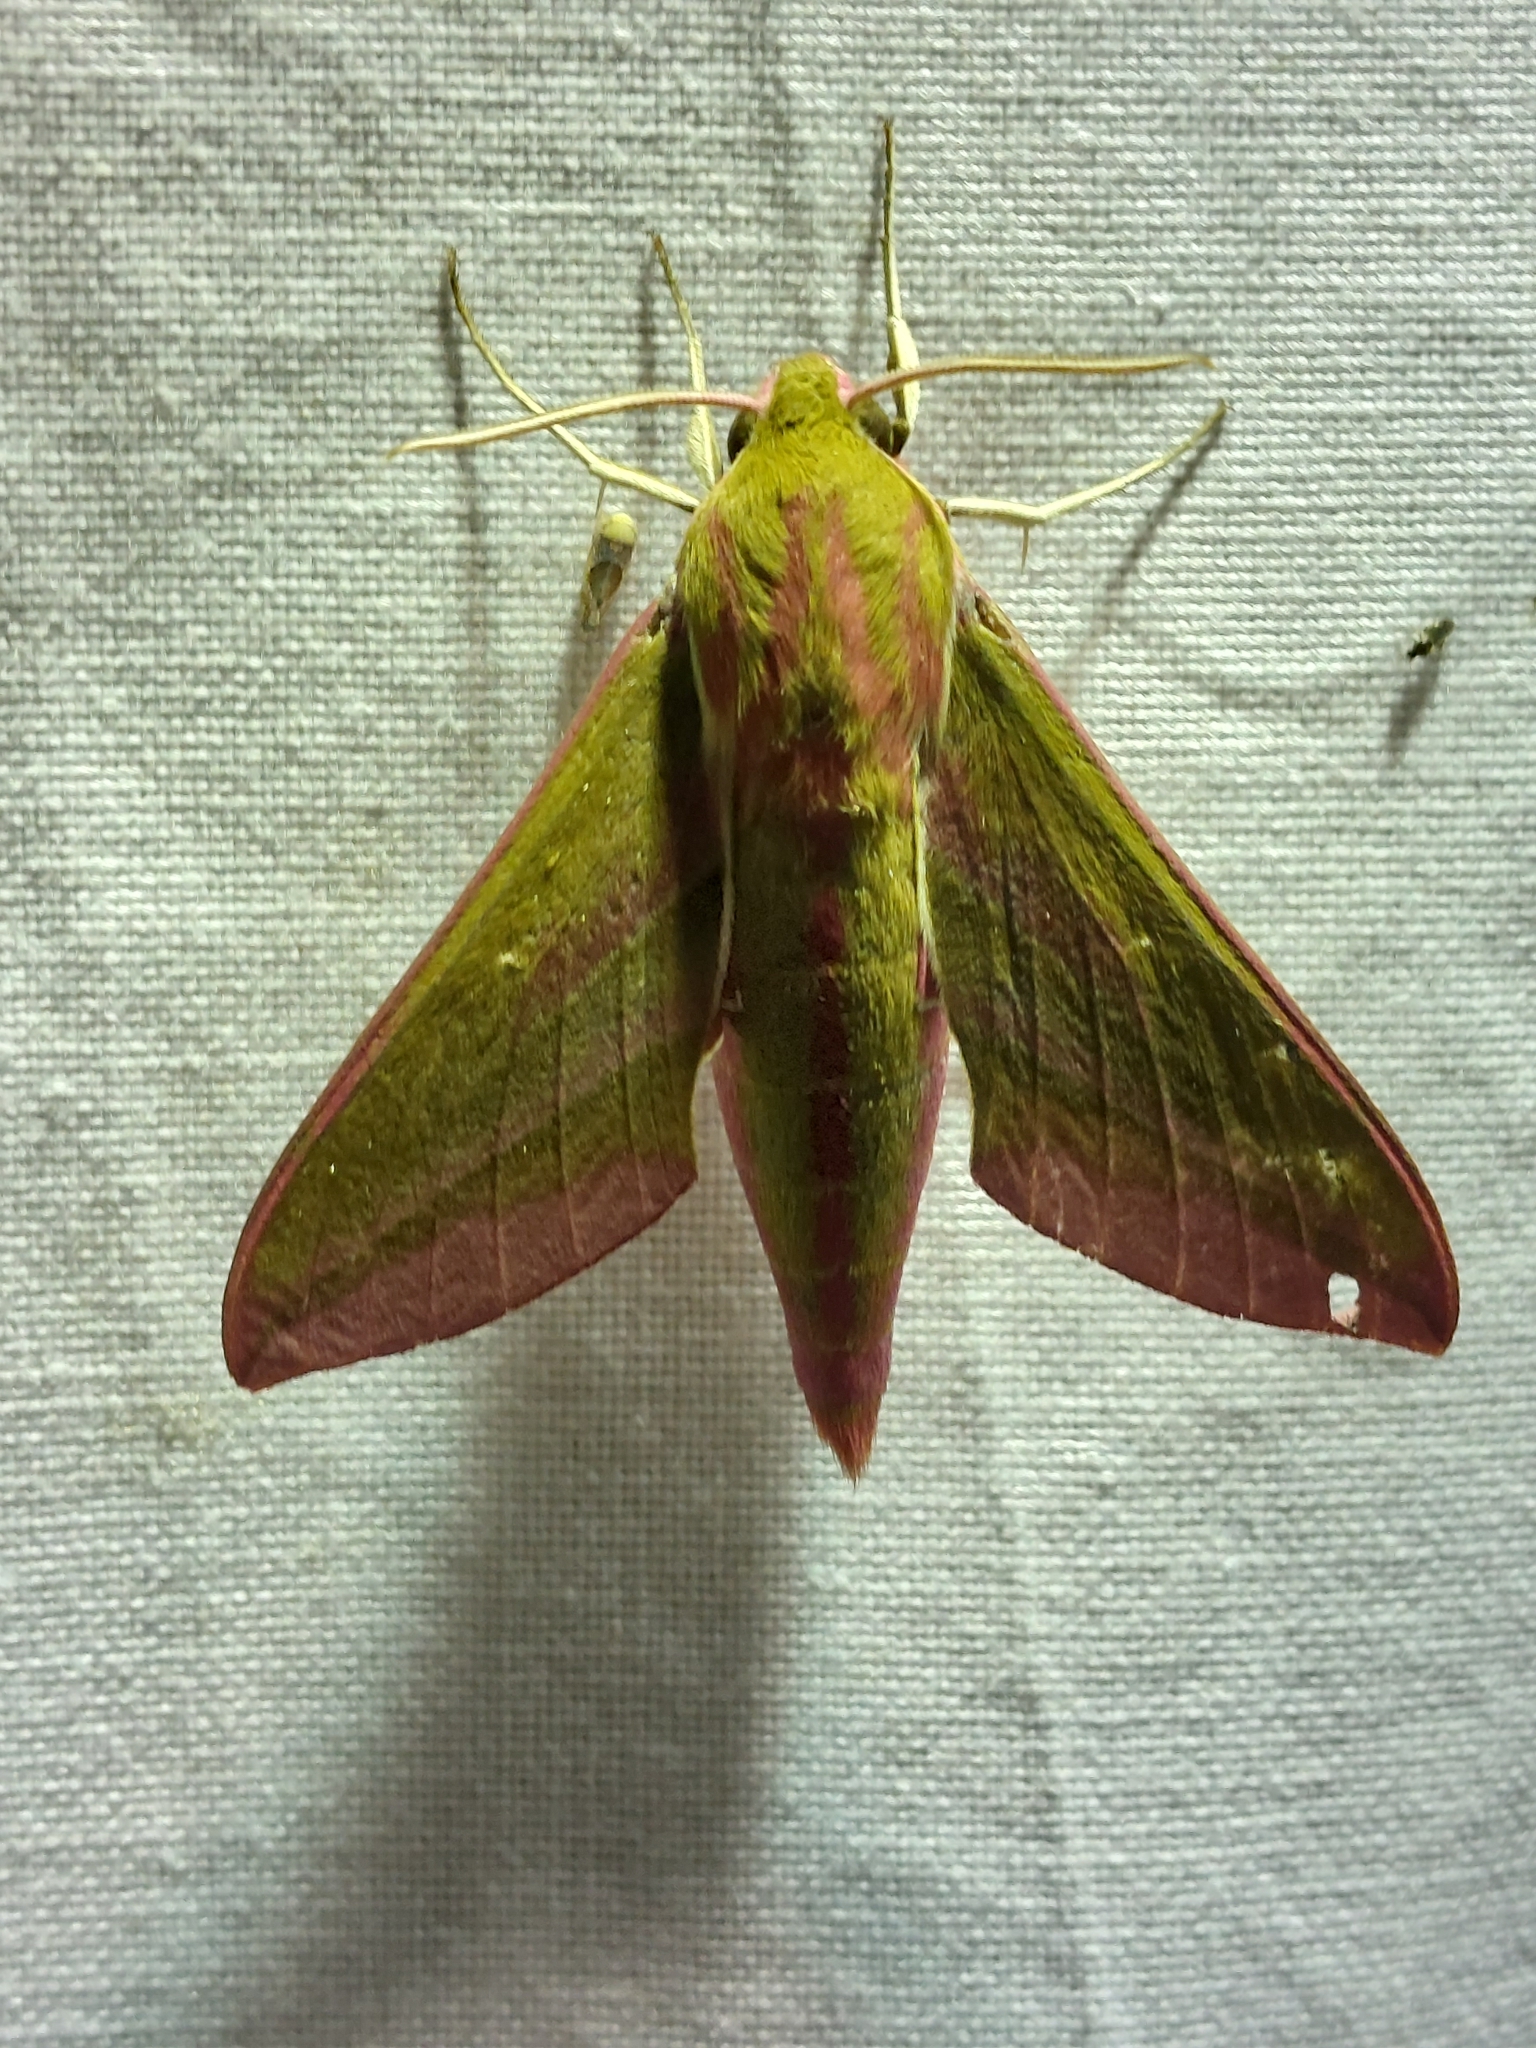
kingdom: Animalia
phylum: Arthropoda
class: Insecta
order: Lepidoptera
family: Sphingidae
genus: Deilephila
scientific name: Deilephila elpenor
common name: Elephant hawk-moth
